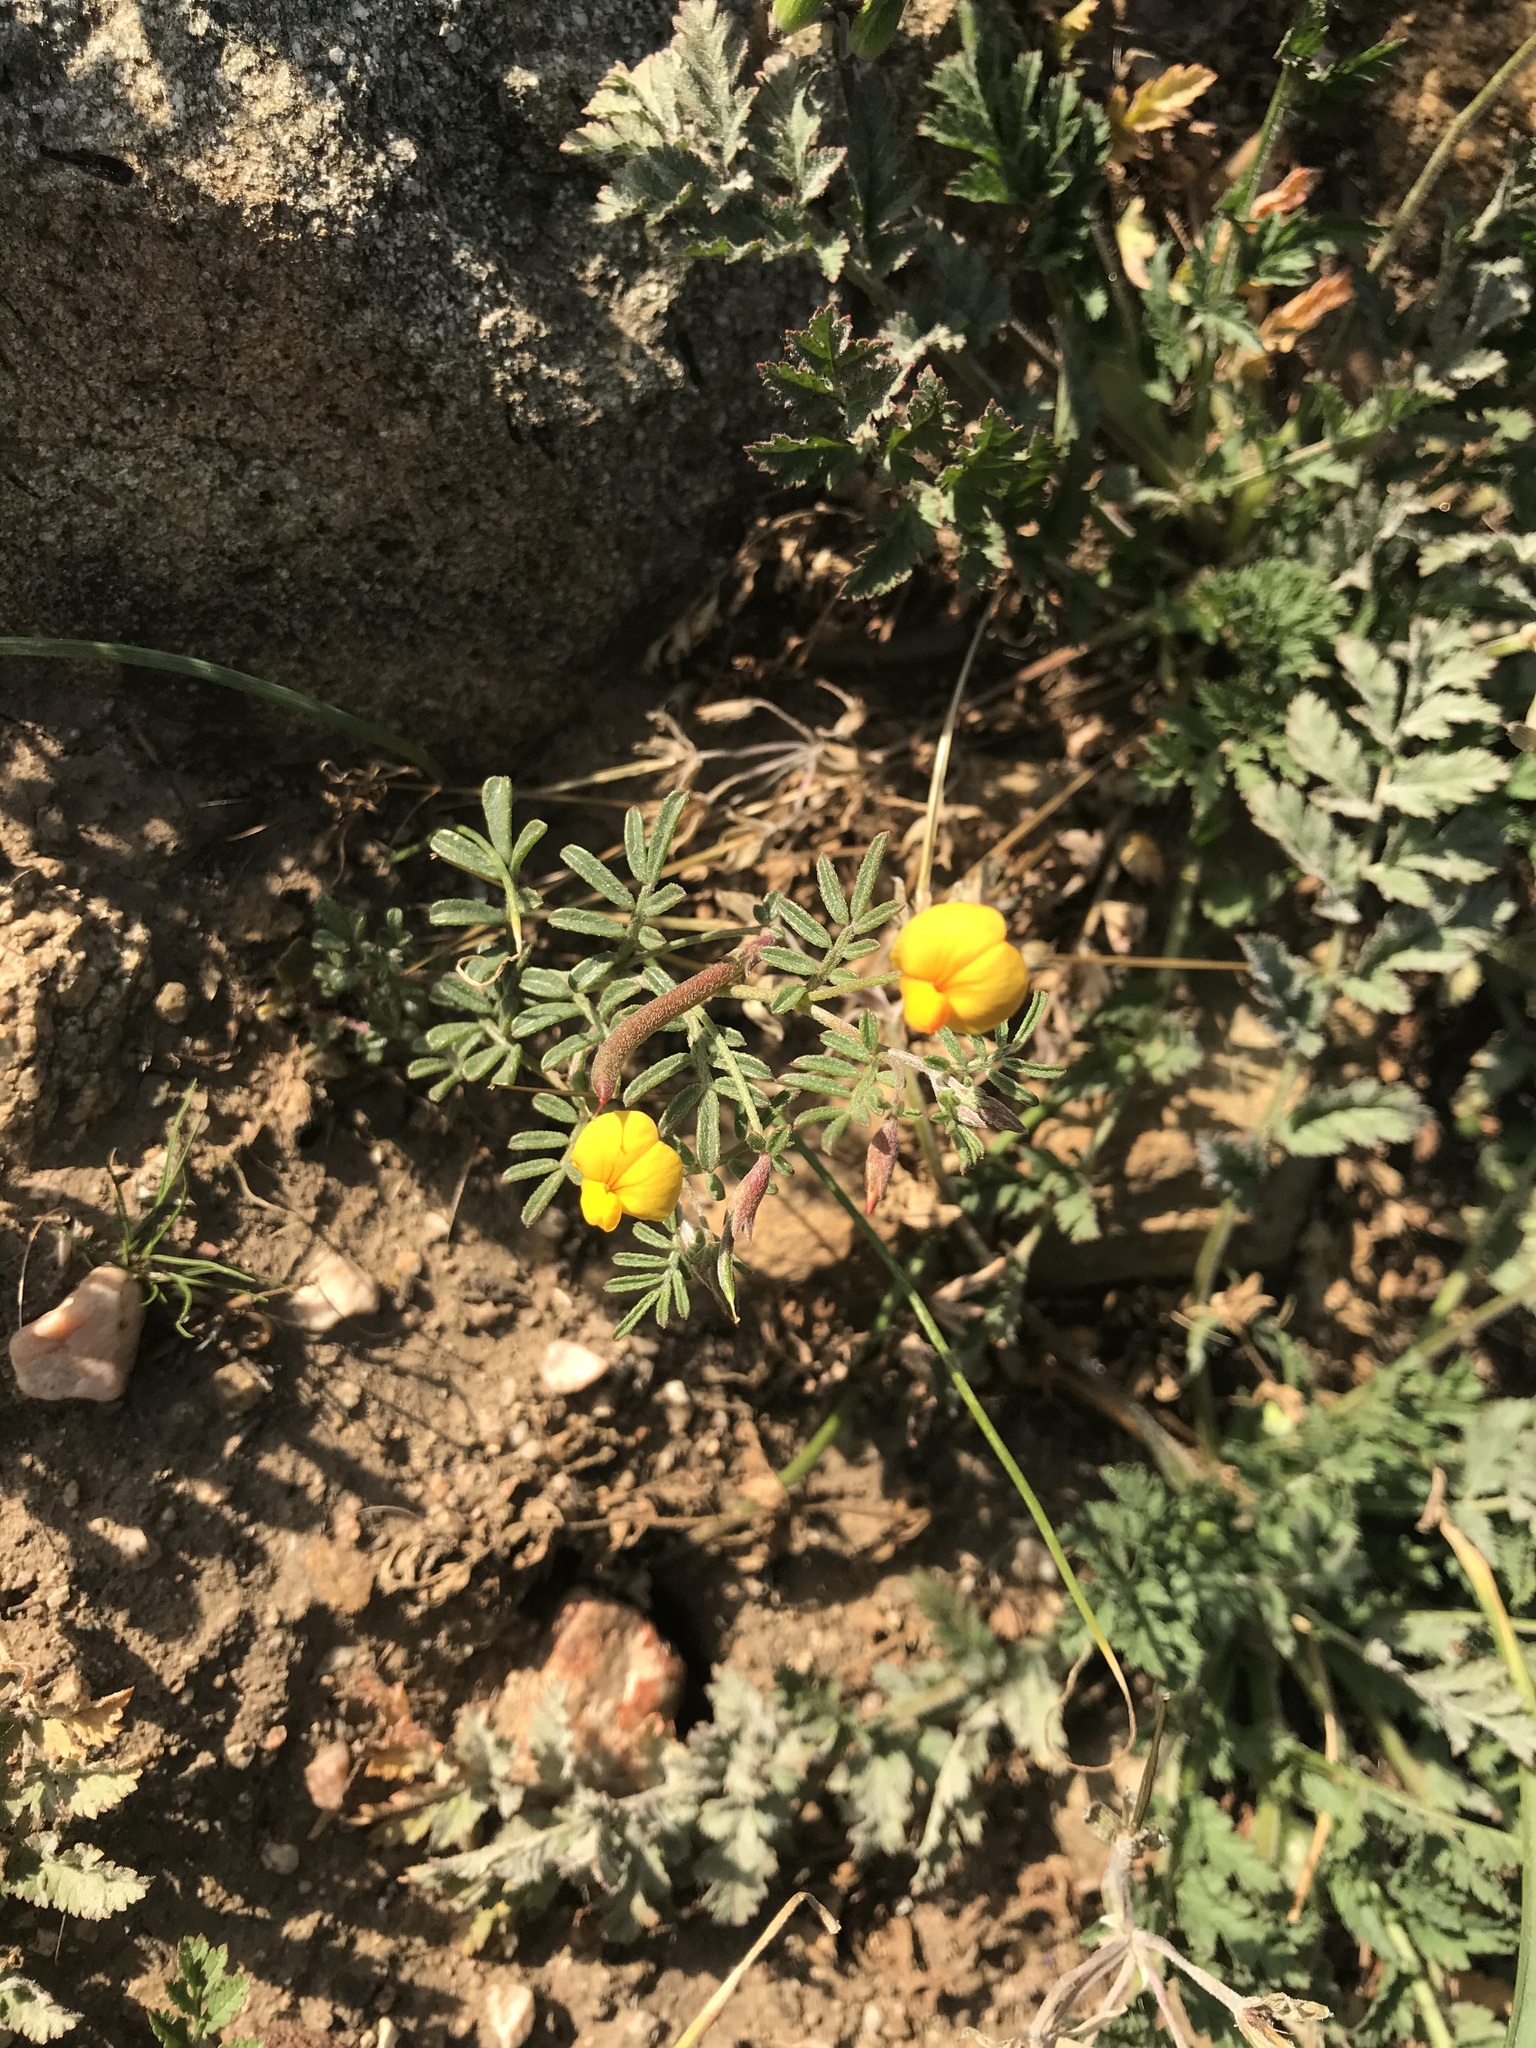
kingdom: Plantae
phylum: Tracheophyta
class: Magnoliopsida
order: Fabales
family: Fabaceae
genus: Acmispon
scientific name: Acmispon strigosus
